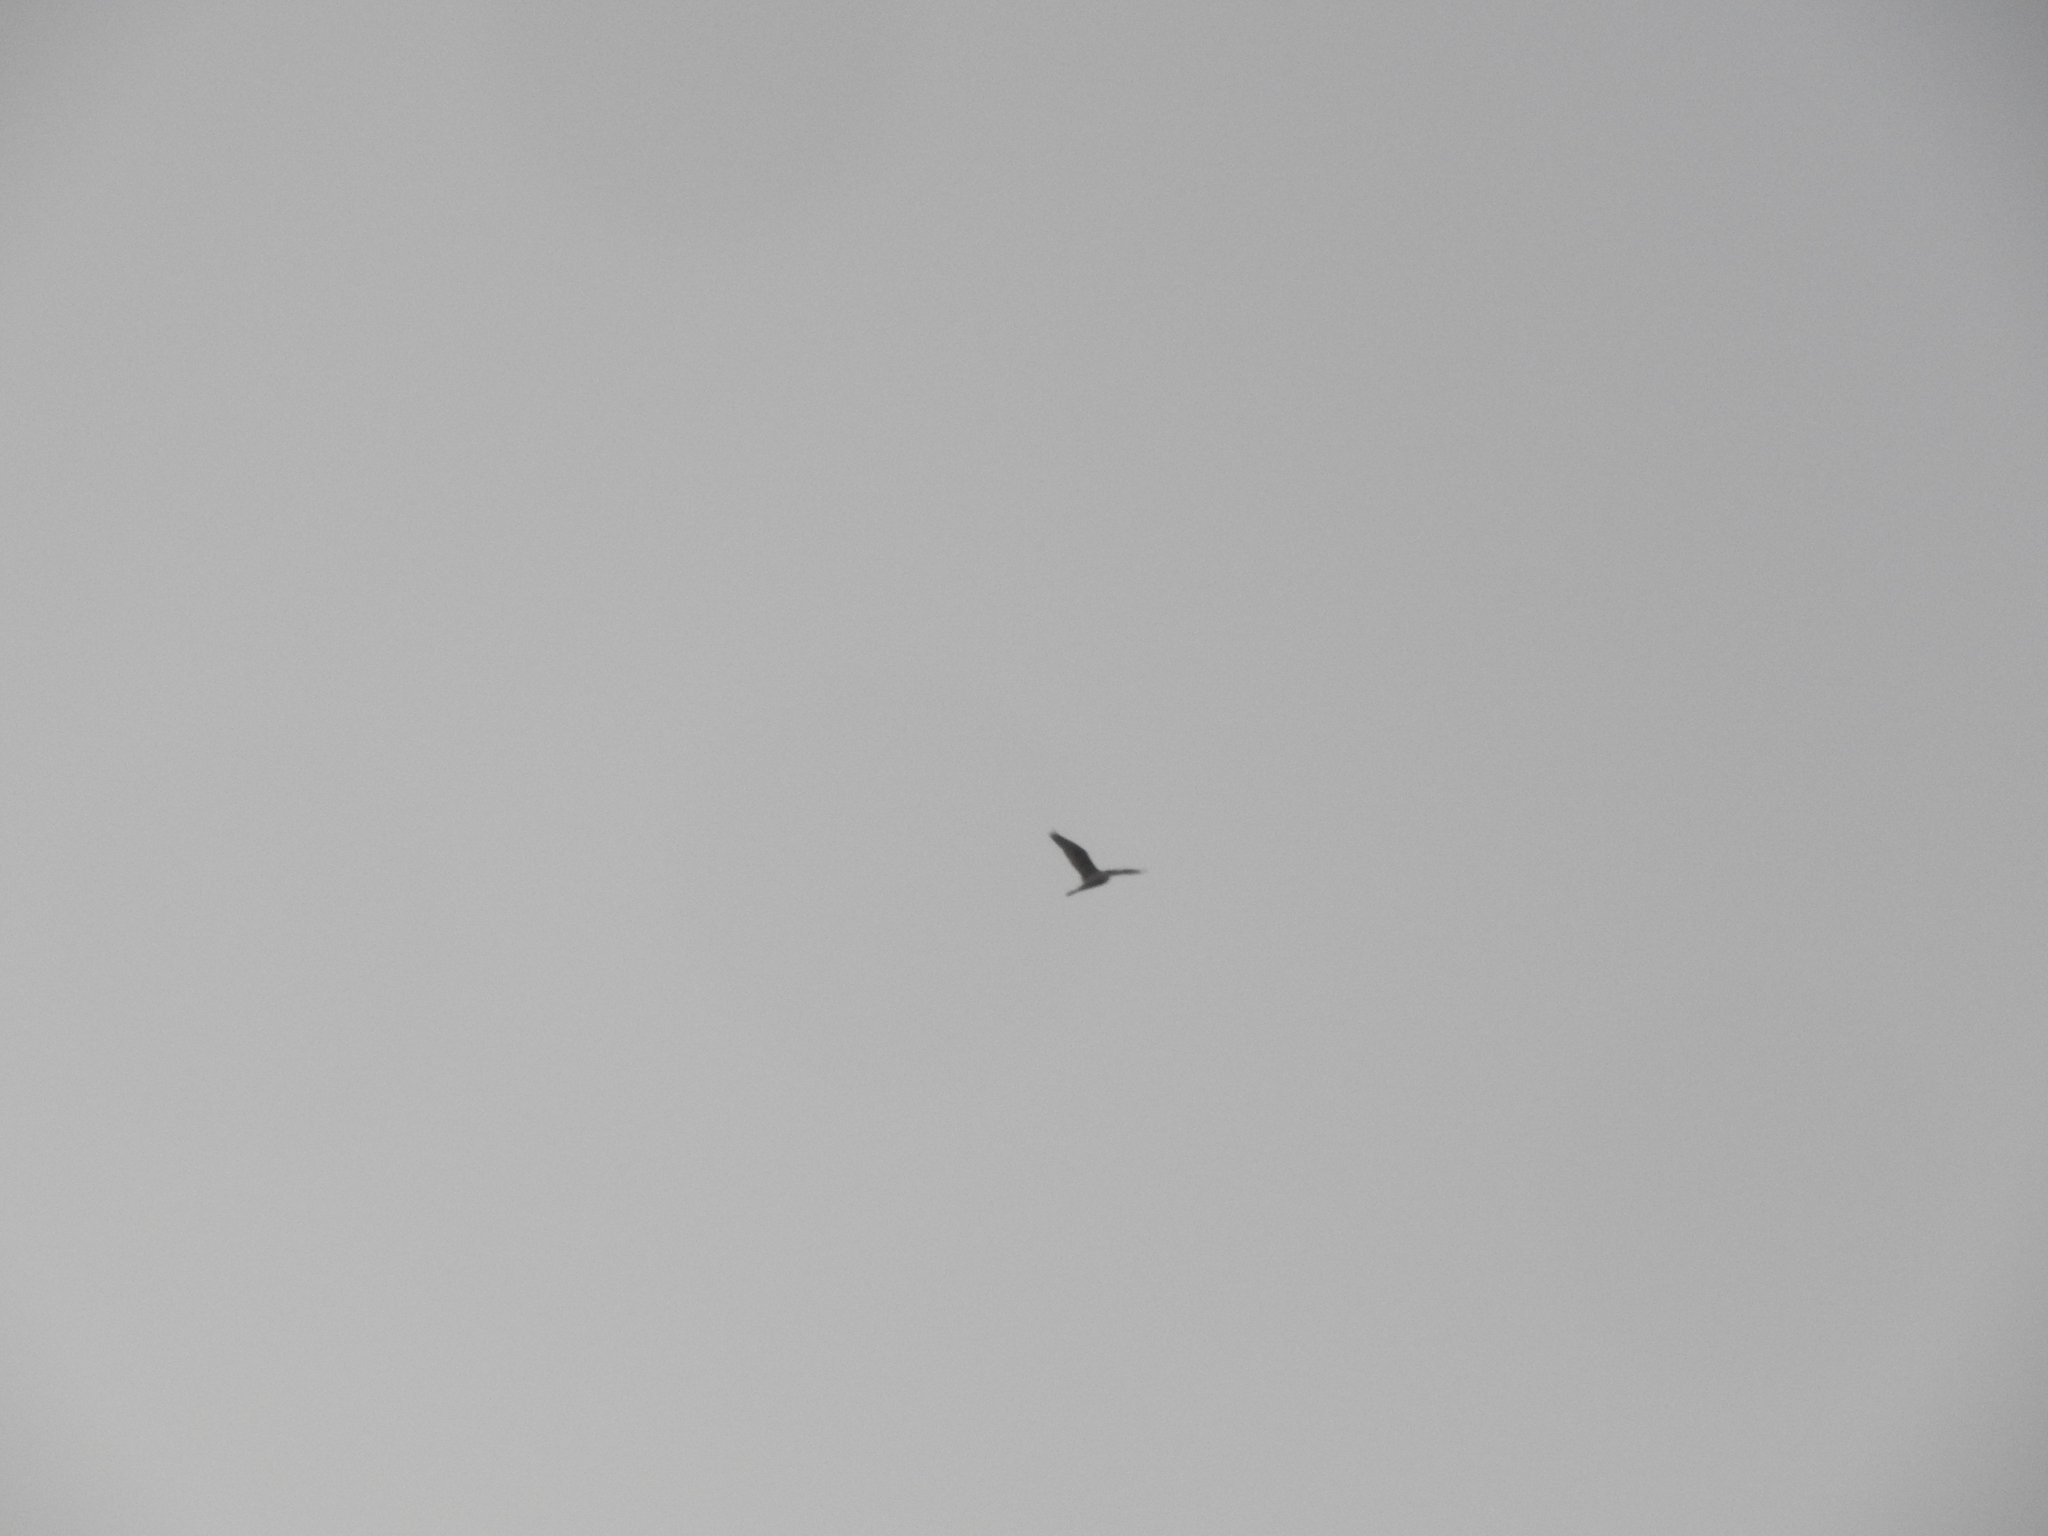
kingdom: Animalia
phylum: Chordata
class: Aves
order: Pelecaniformes
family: Ardeidae
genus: Bubulcus
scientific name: Bubulcus ibis
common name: Cattle egret
